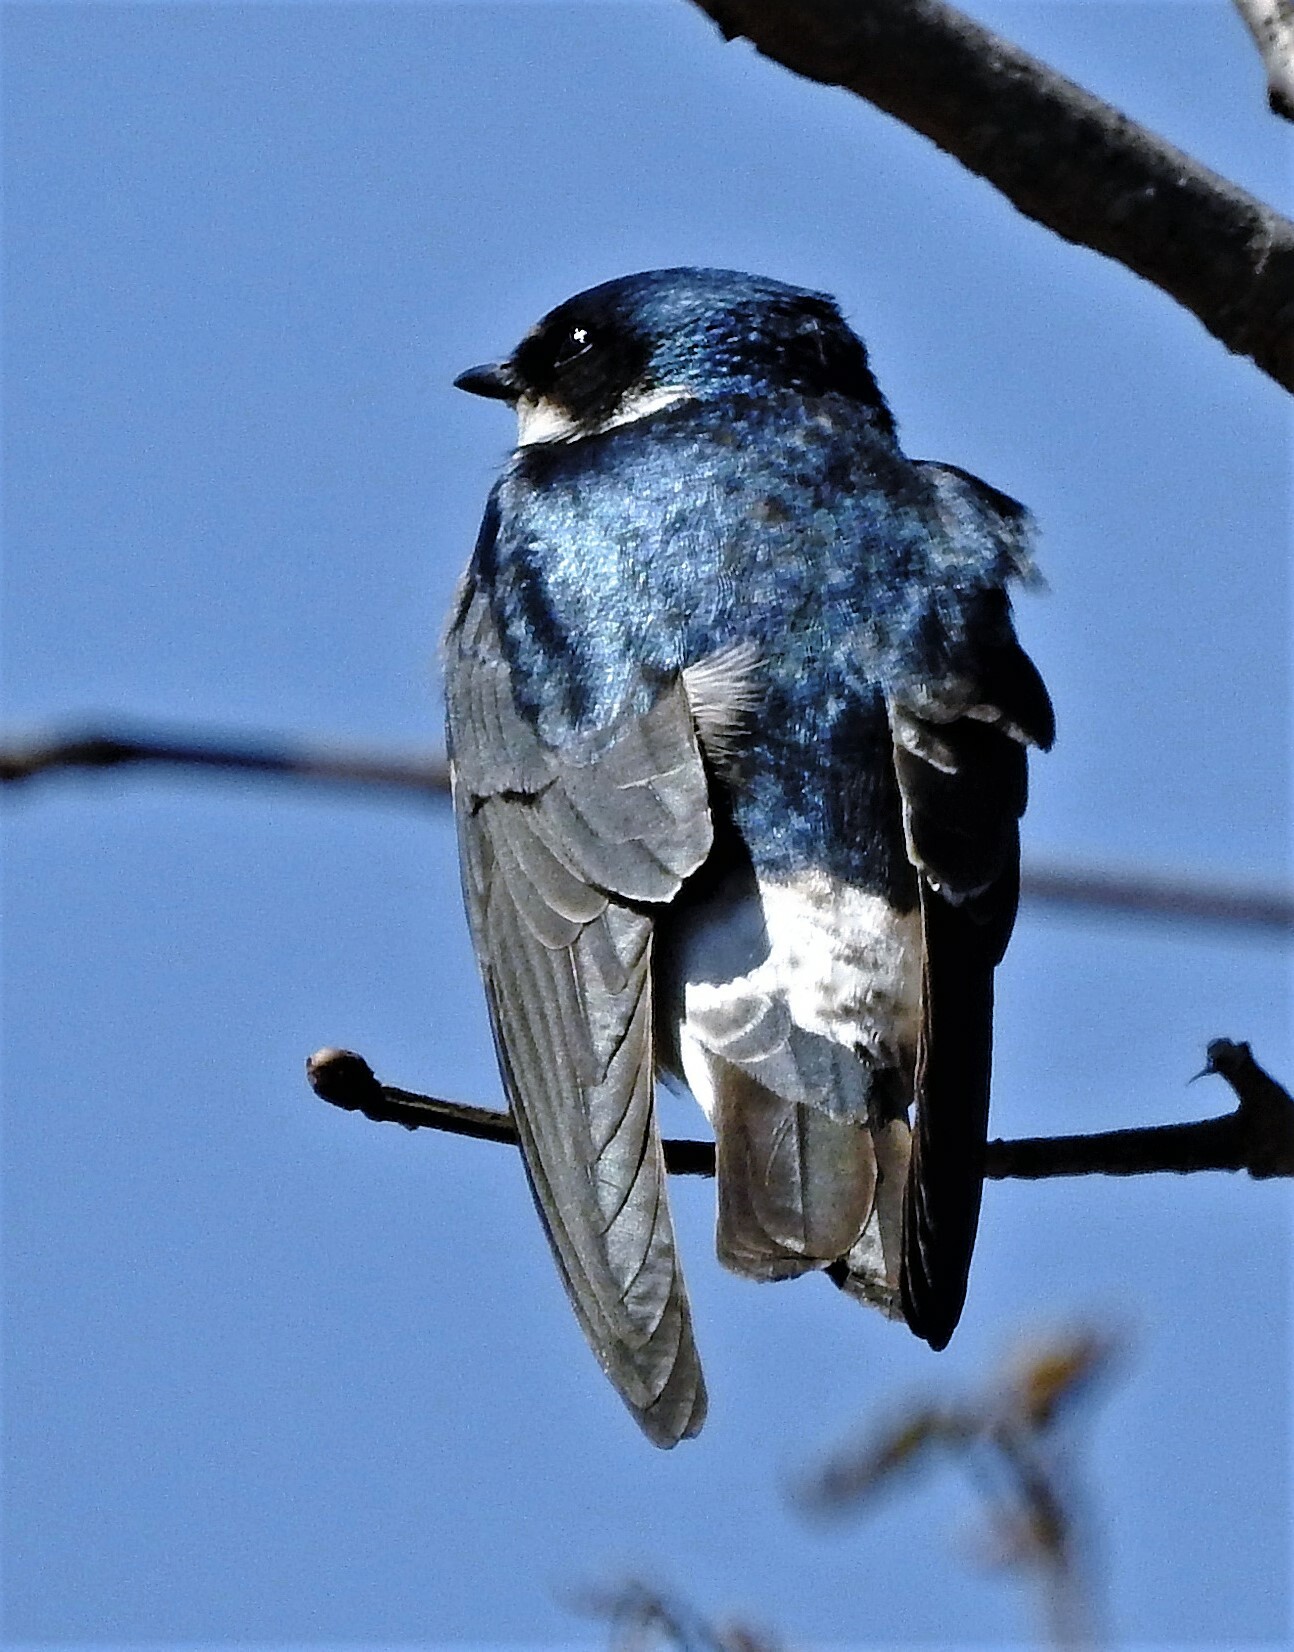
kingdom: Animalia
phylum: Chordata
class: Aves
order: Passeriformes
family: Hirundinidae
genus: Tachycineta
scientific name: Tachycineta leucorrhoa
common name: White-rumped swallow
